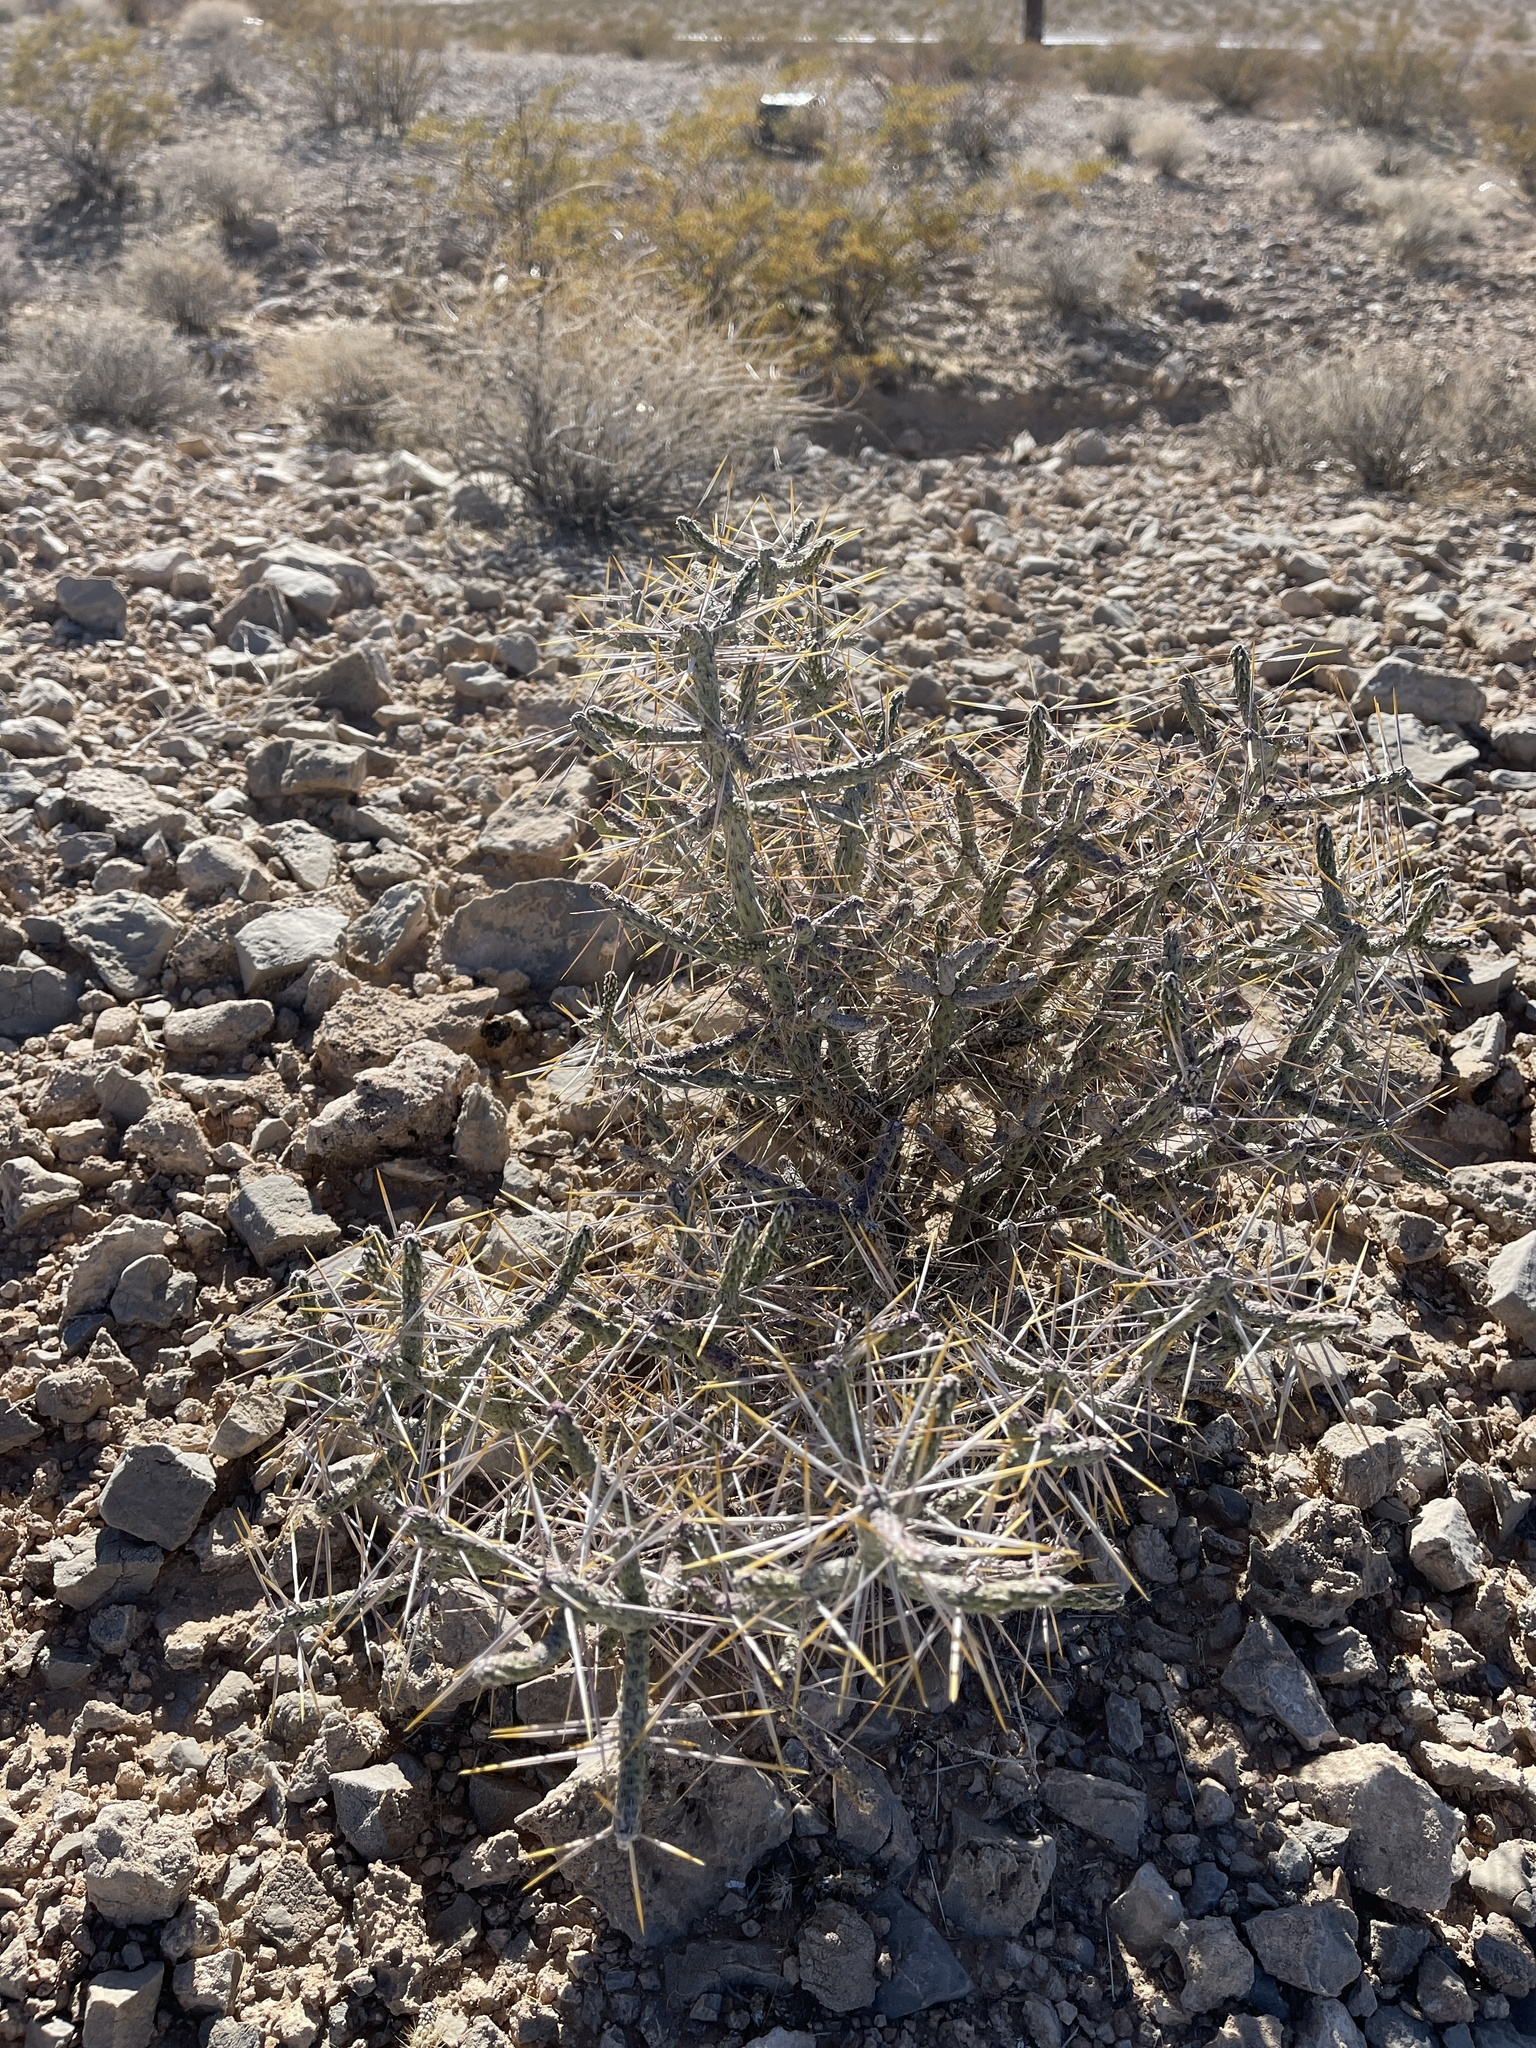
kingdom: Plantae
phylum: Tracheophyta
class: Magnoliopsida
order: Caryophyllales
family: Cactaceae
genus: Cylindropuntia
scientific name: Cylindropuntia ramosissima
